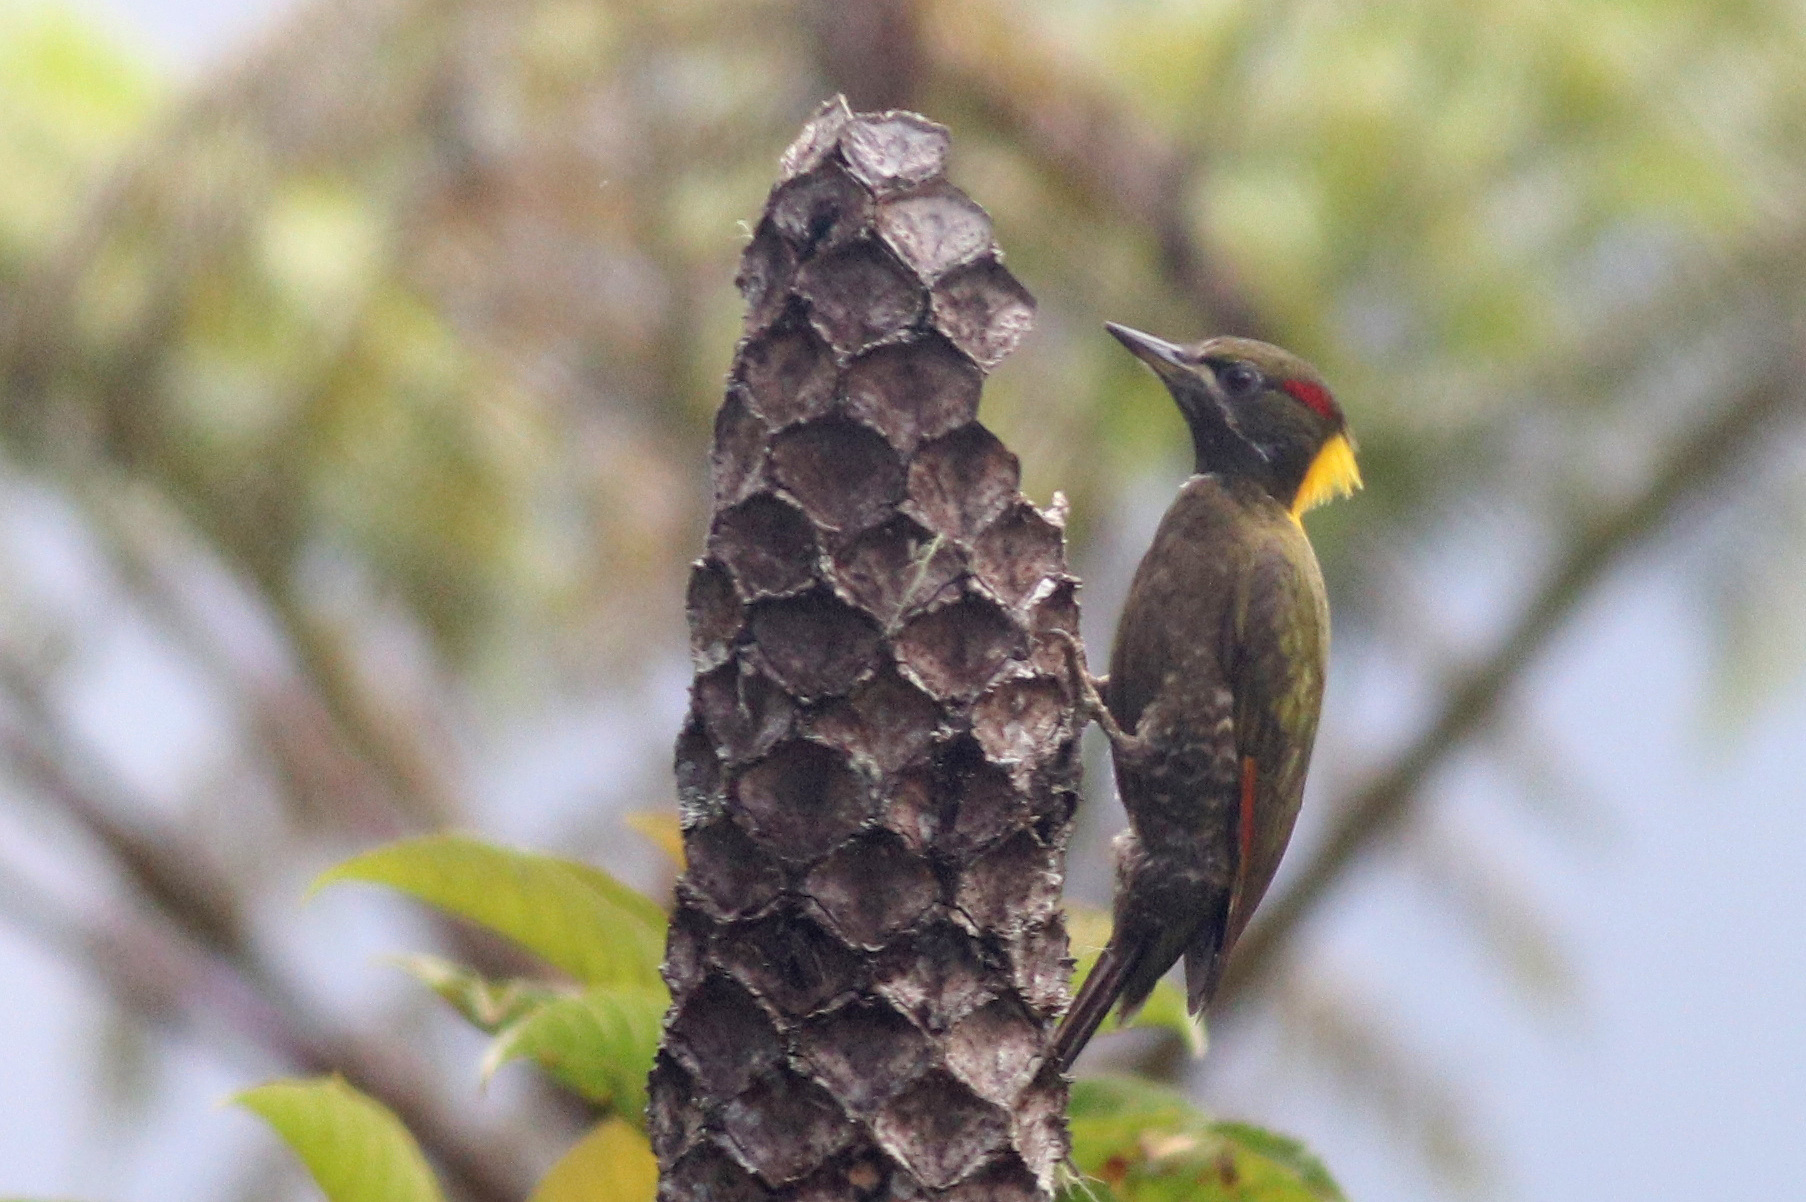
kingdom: Animalia
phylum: Chordata
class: Aves
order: Piciformes
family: Picidae
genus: Picus
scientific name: Picus chlorolophus
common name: Lesser yellownape
